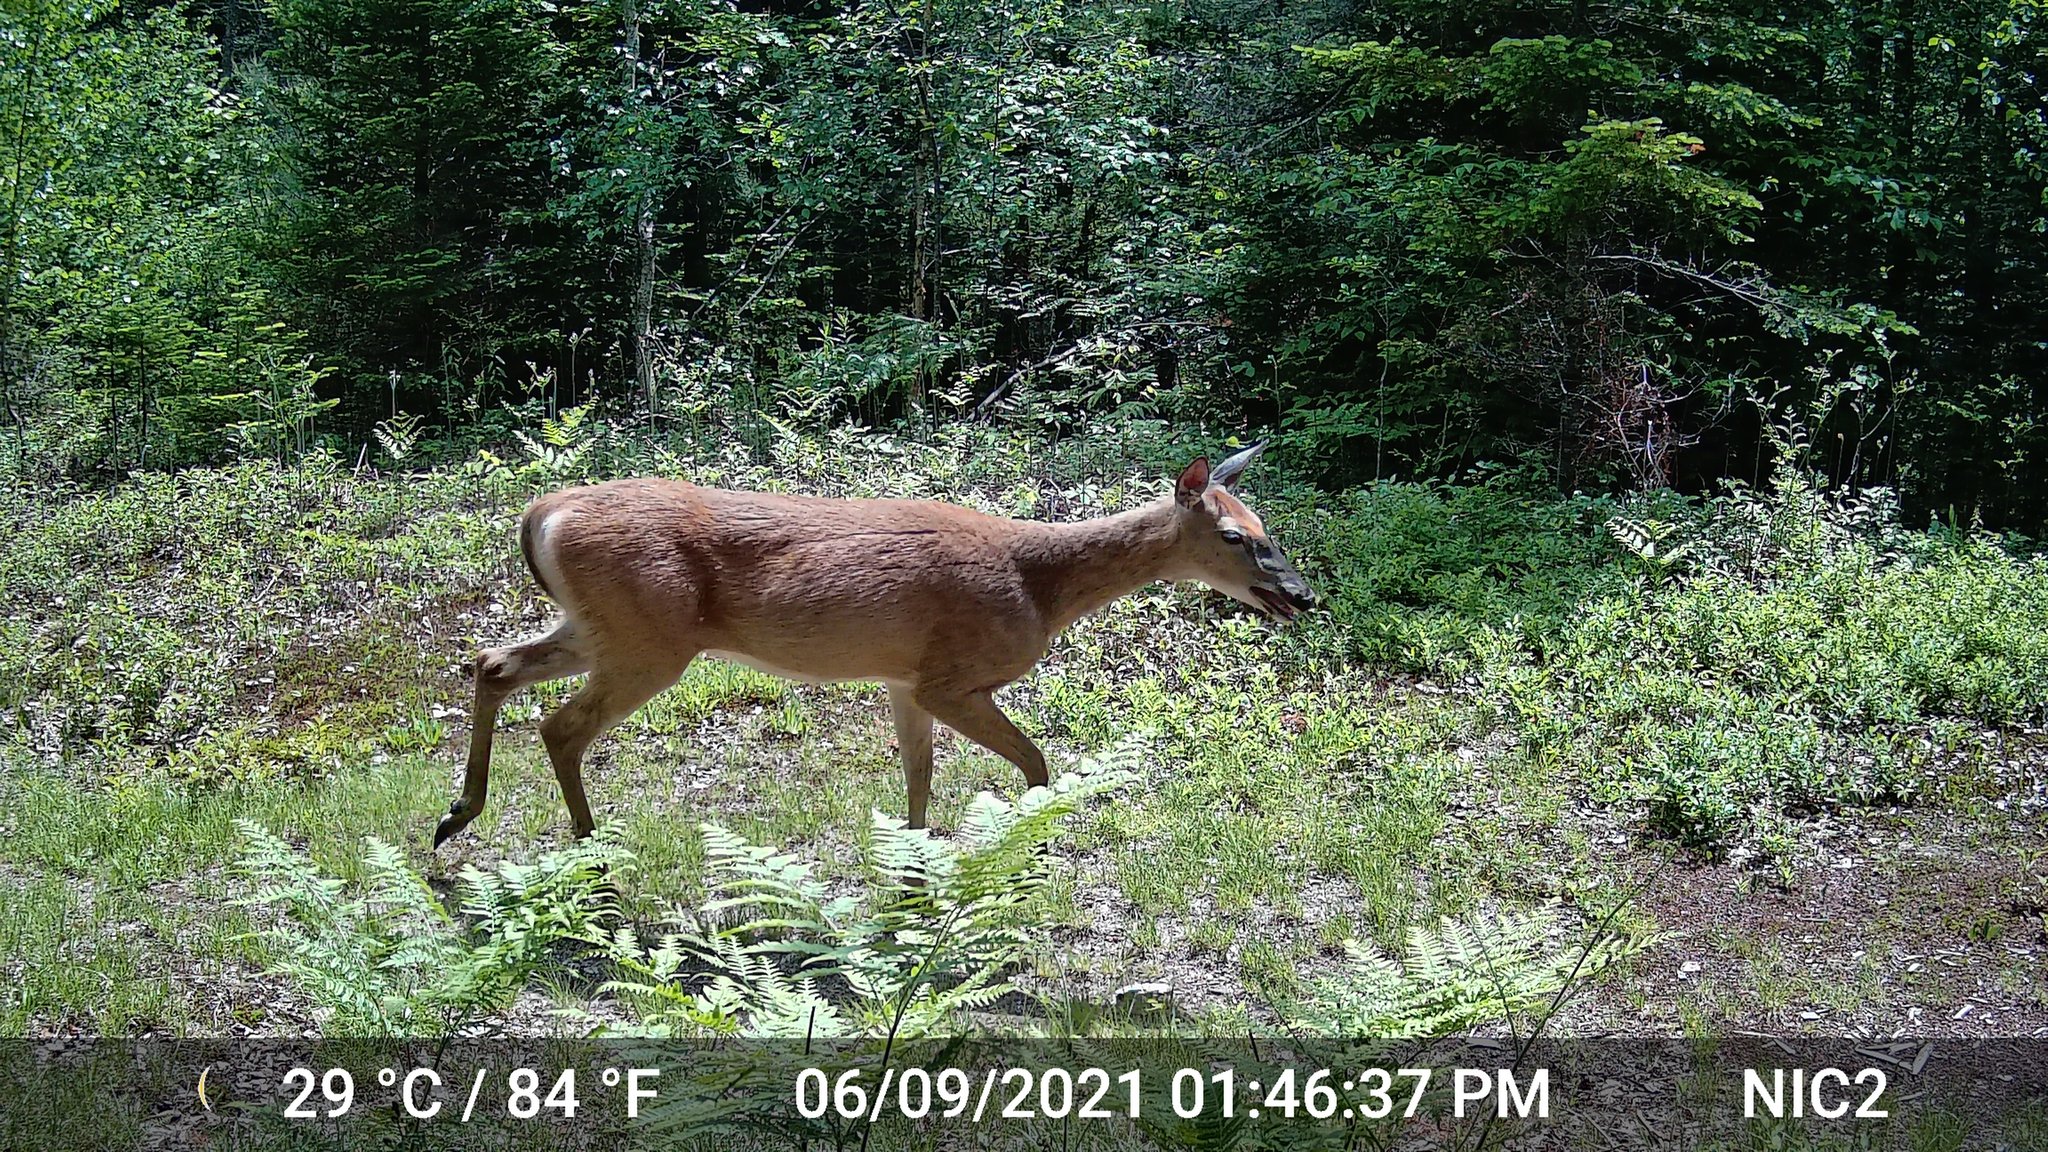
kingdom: Animalia
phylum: Chordata
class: Mammalia
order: Artiodactyla
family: Cervidae
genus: Odocoileus
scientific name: Odocoileus virginianus
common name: White-tailed deer
